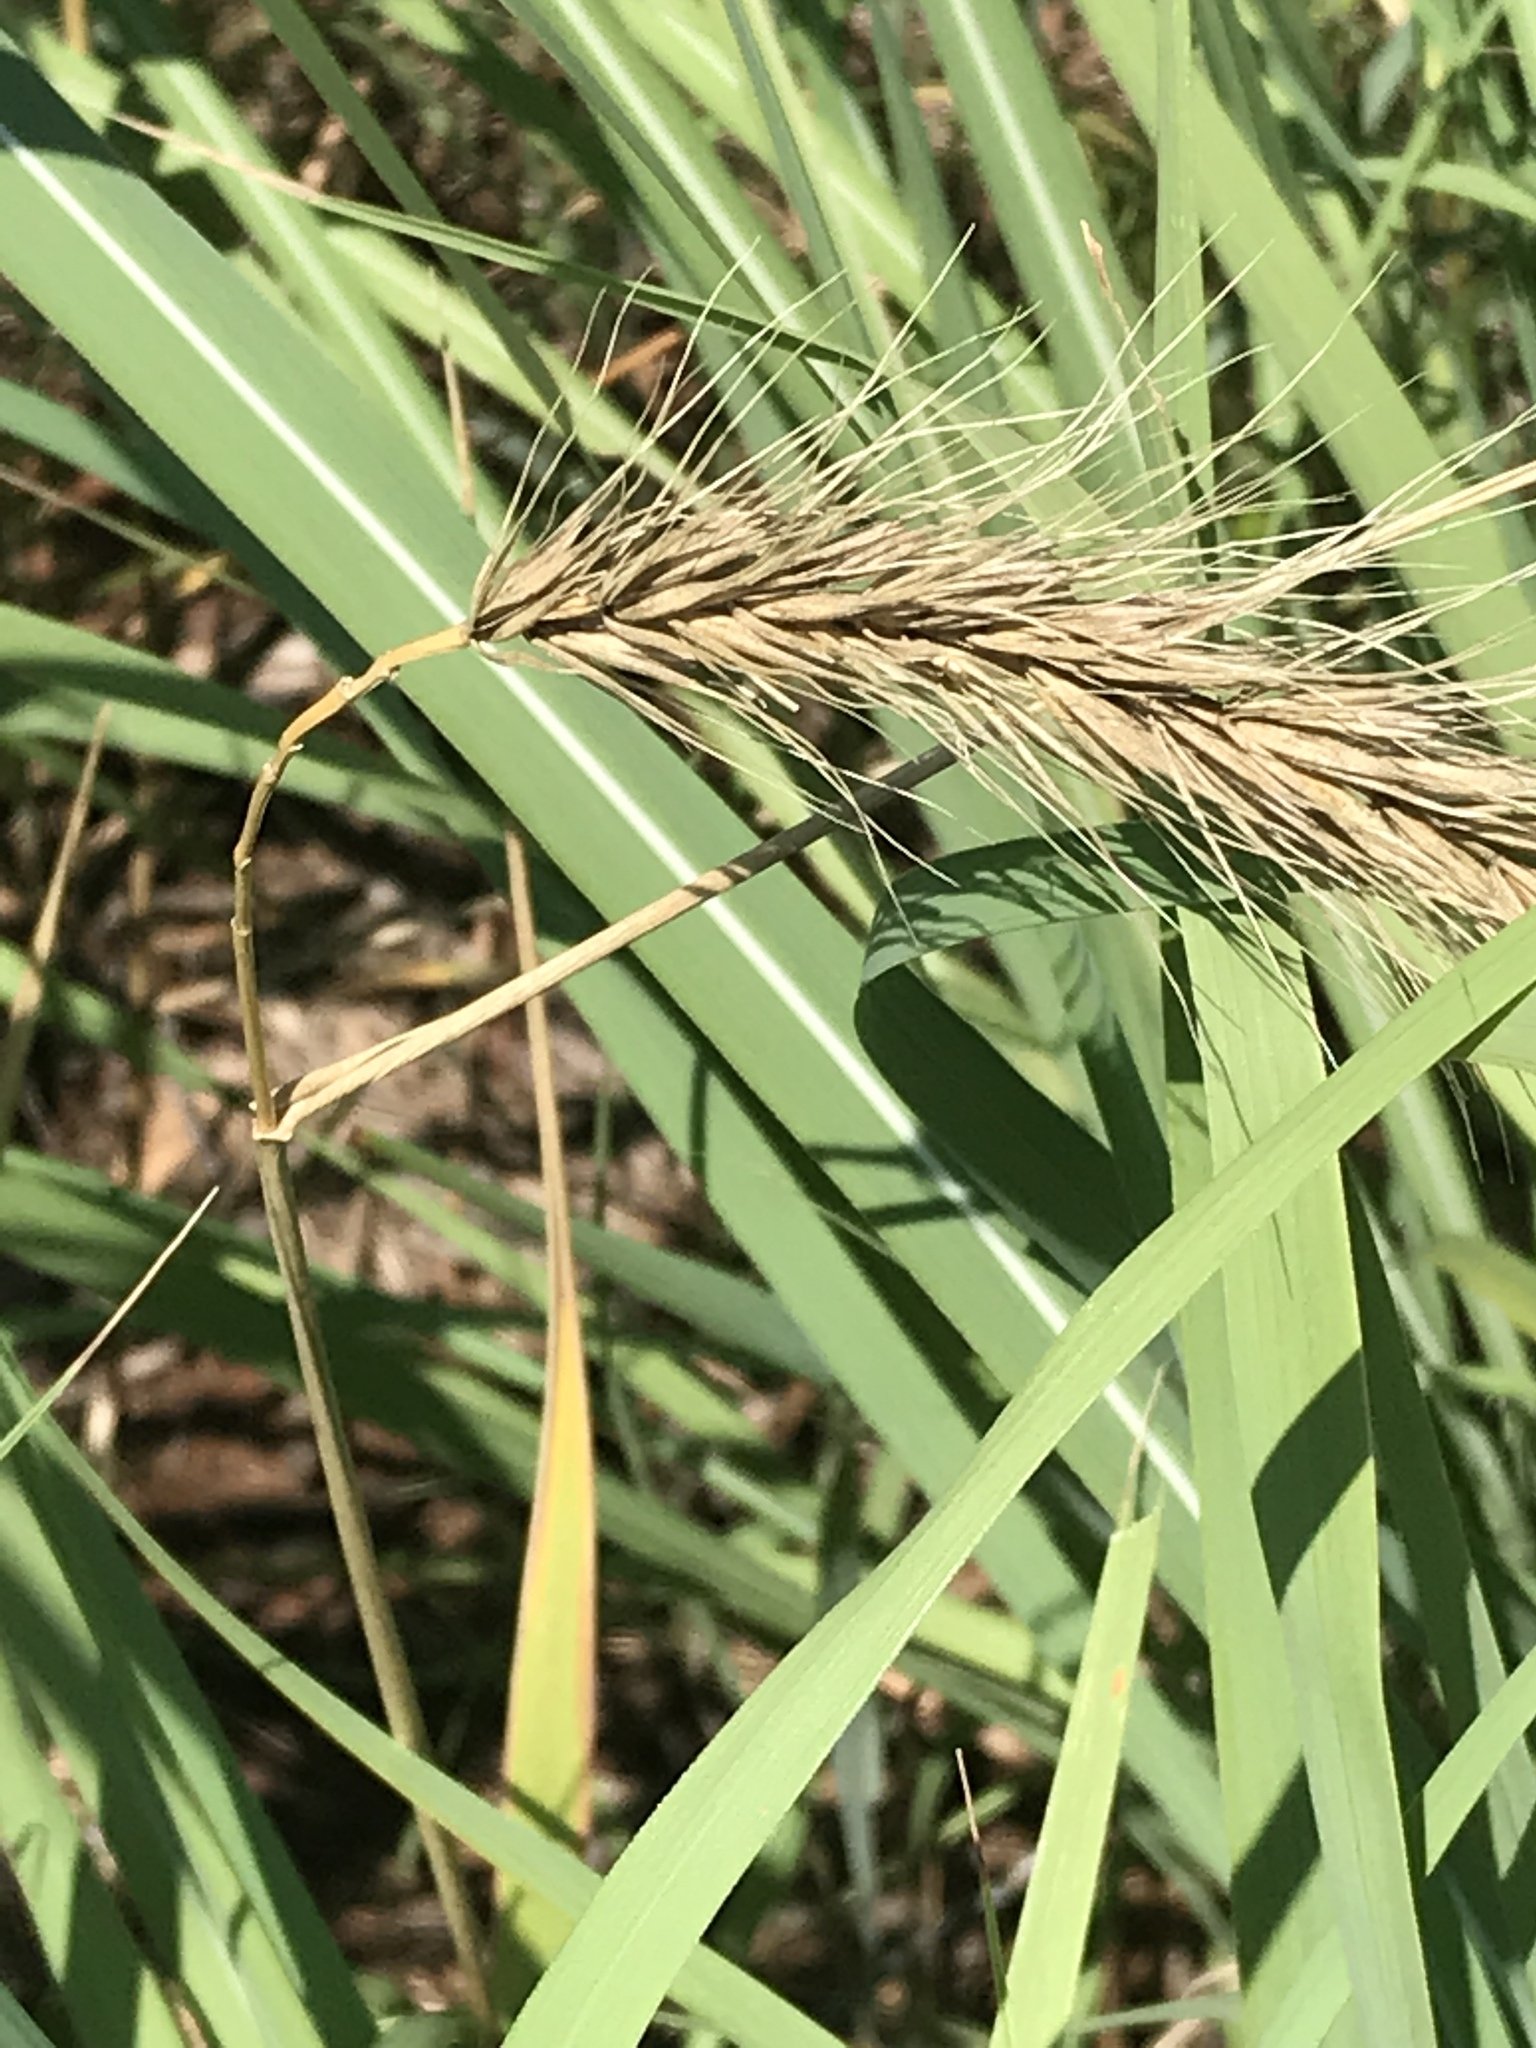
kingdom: Plantae
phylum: Tracheophyta
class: Liliopsida
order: Poales
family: Poaceae
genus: Elymus
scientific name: Elymus canadensis
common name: Canada wild rye
